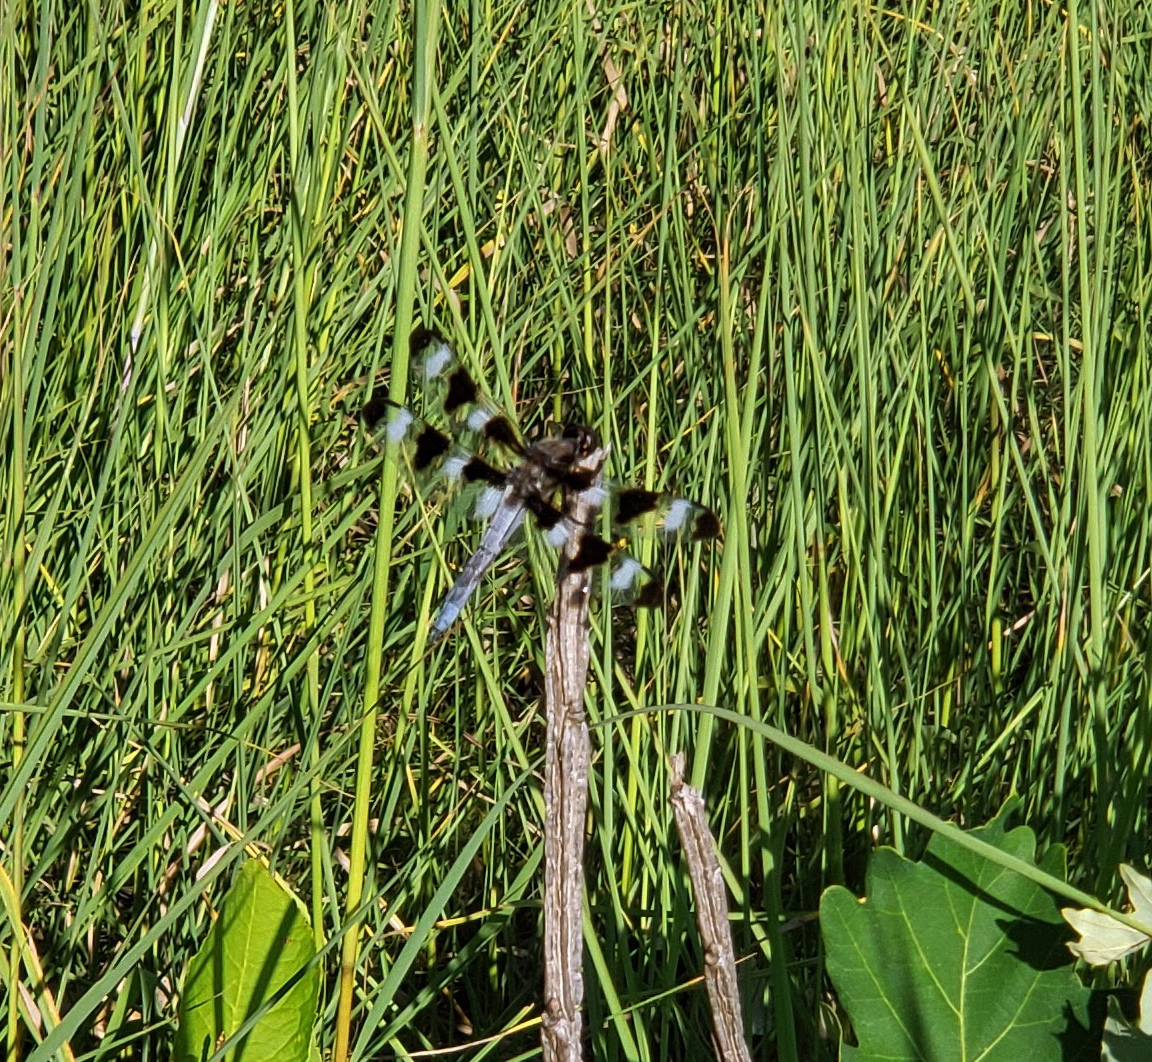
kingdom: Animalia
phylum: Arthropoda
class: Insecta
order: Odonata
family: Libellulidae
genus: Libellula
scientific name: Libellula pulchella
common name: Twelve-spotted skimmer
